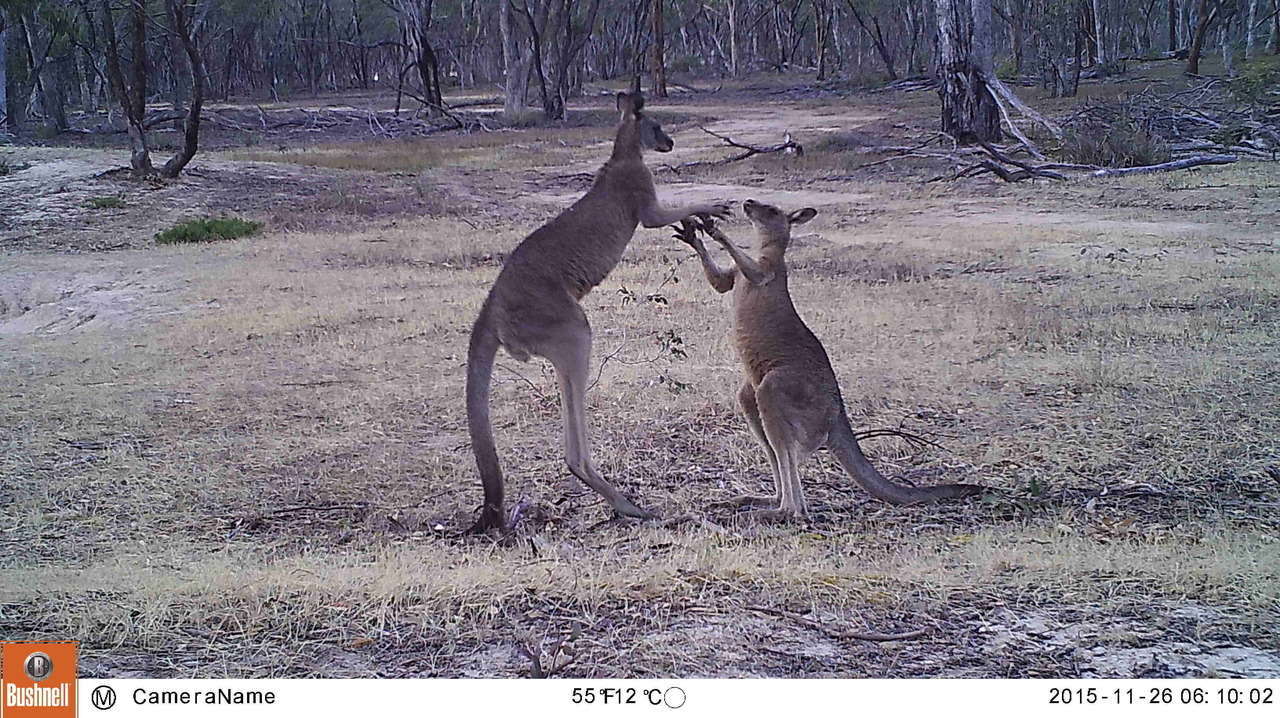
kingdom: Animalia
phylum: Chordata
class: Mammalia
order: Diprotodontia
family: Macropodidae
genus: Macropus
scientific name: Macropus giganteus
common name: Eastern grey kangaroo
